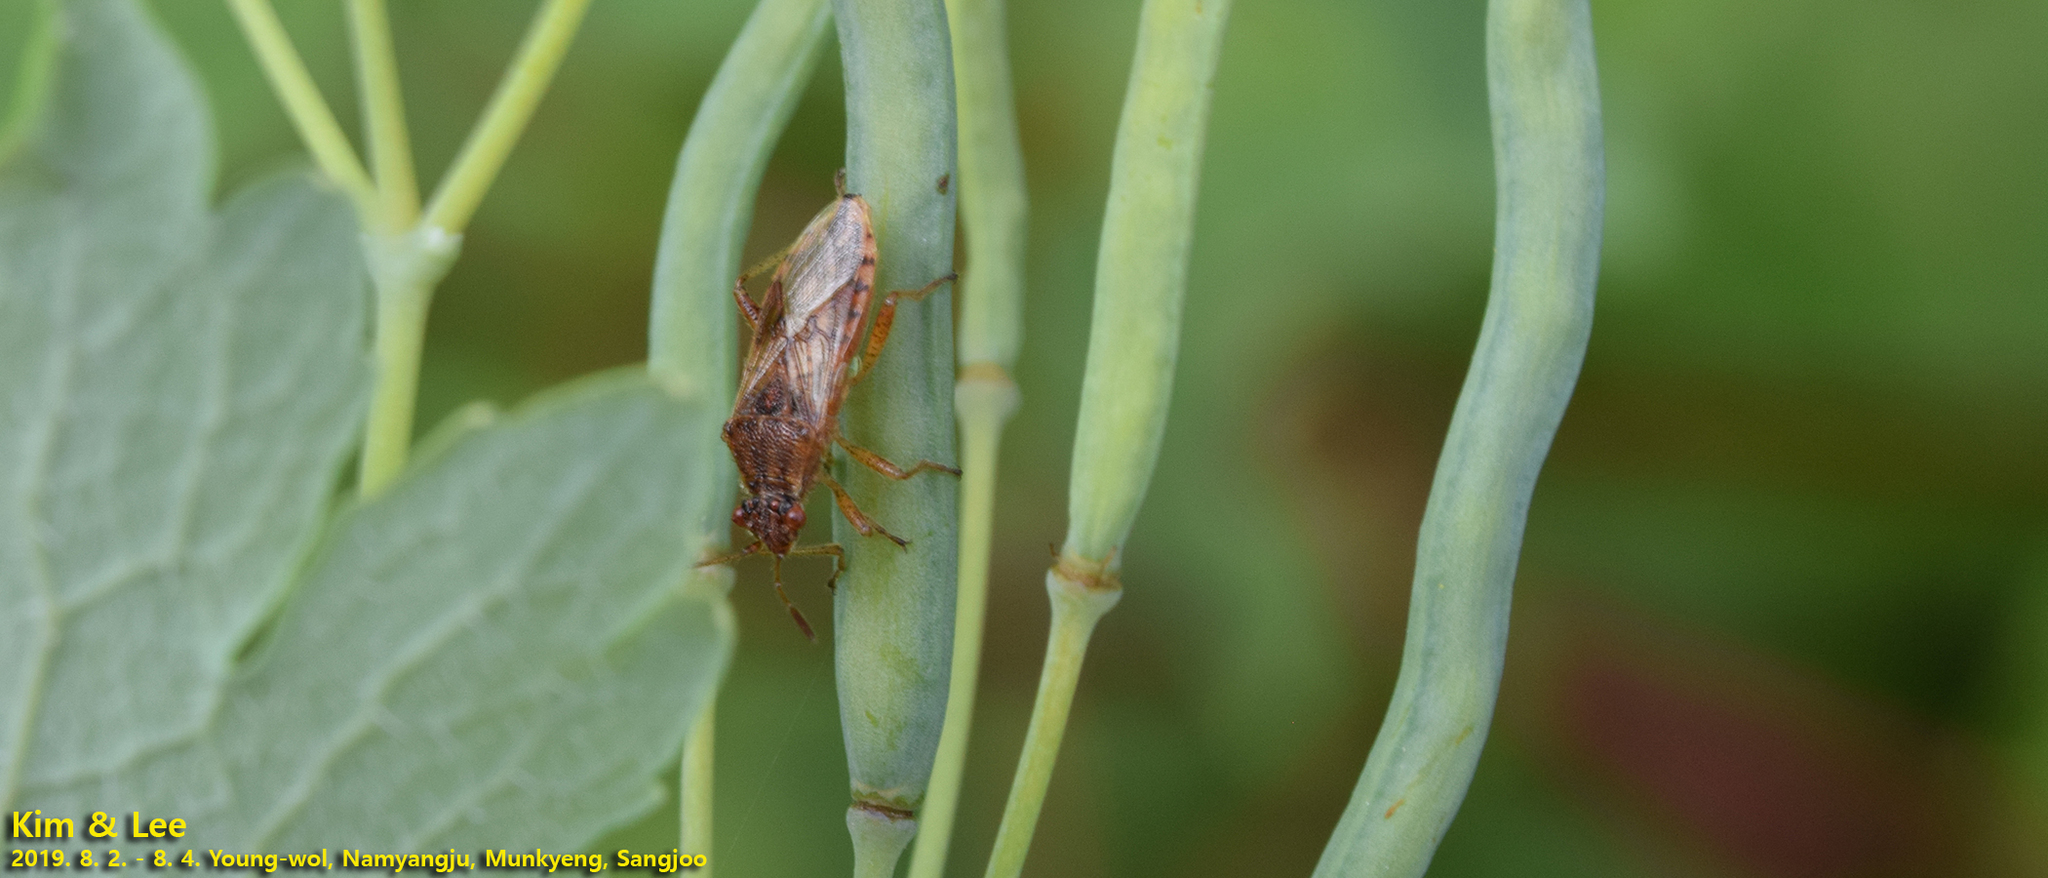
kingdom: Animalia
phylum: Arthropoda
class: Insecta
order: Hemiptera
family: Rhopalidae
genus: Rhopalus
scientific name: Rhopalus parumpunctatus
